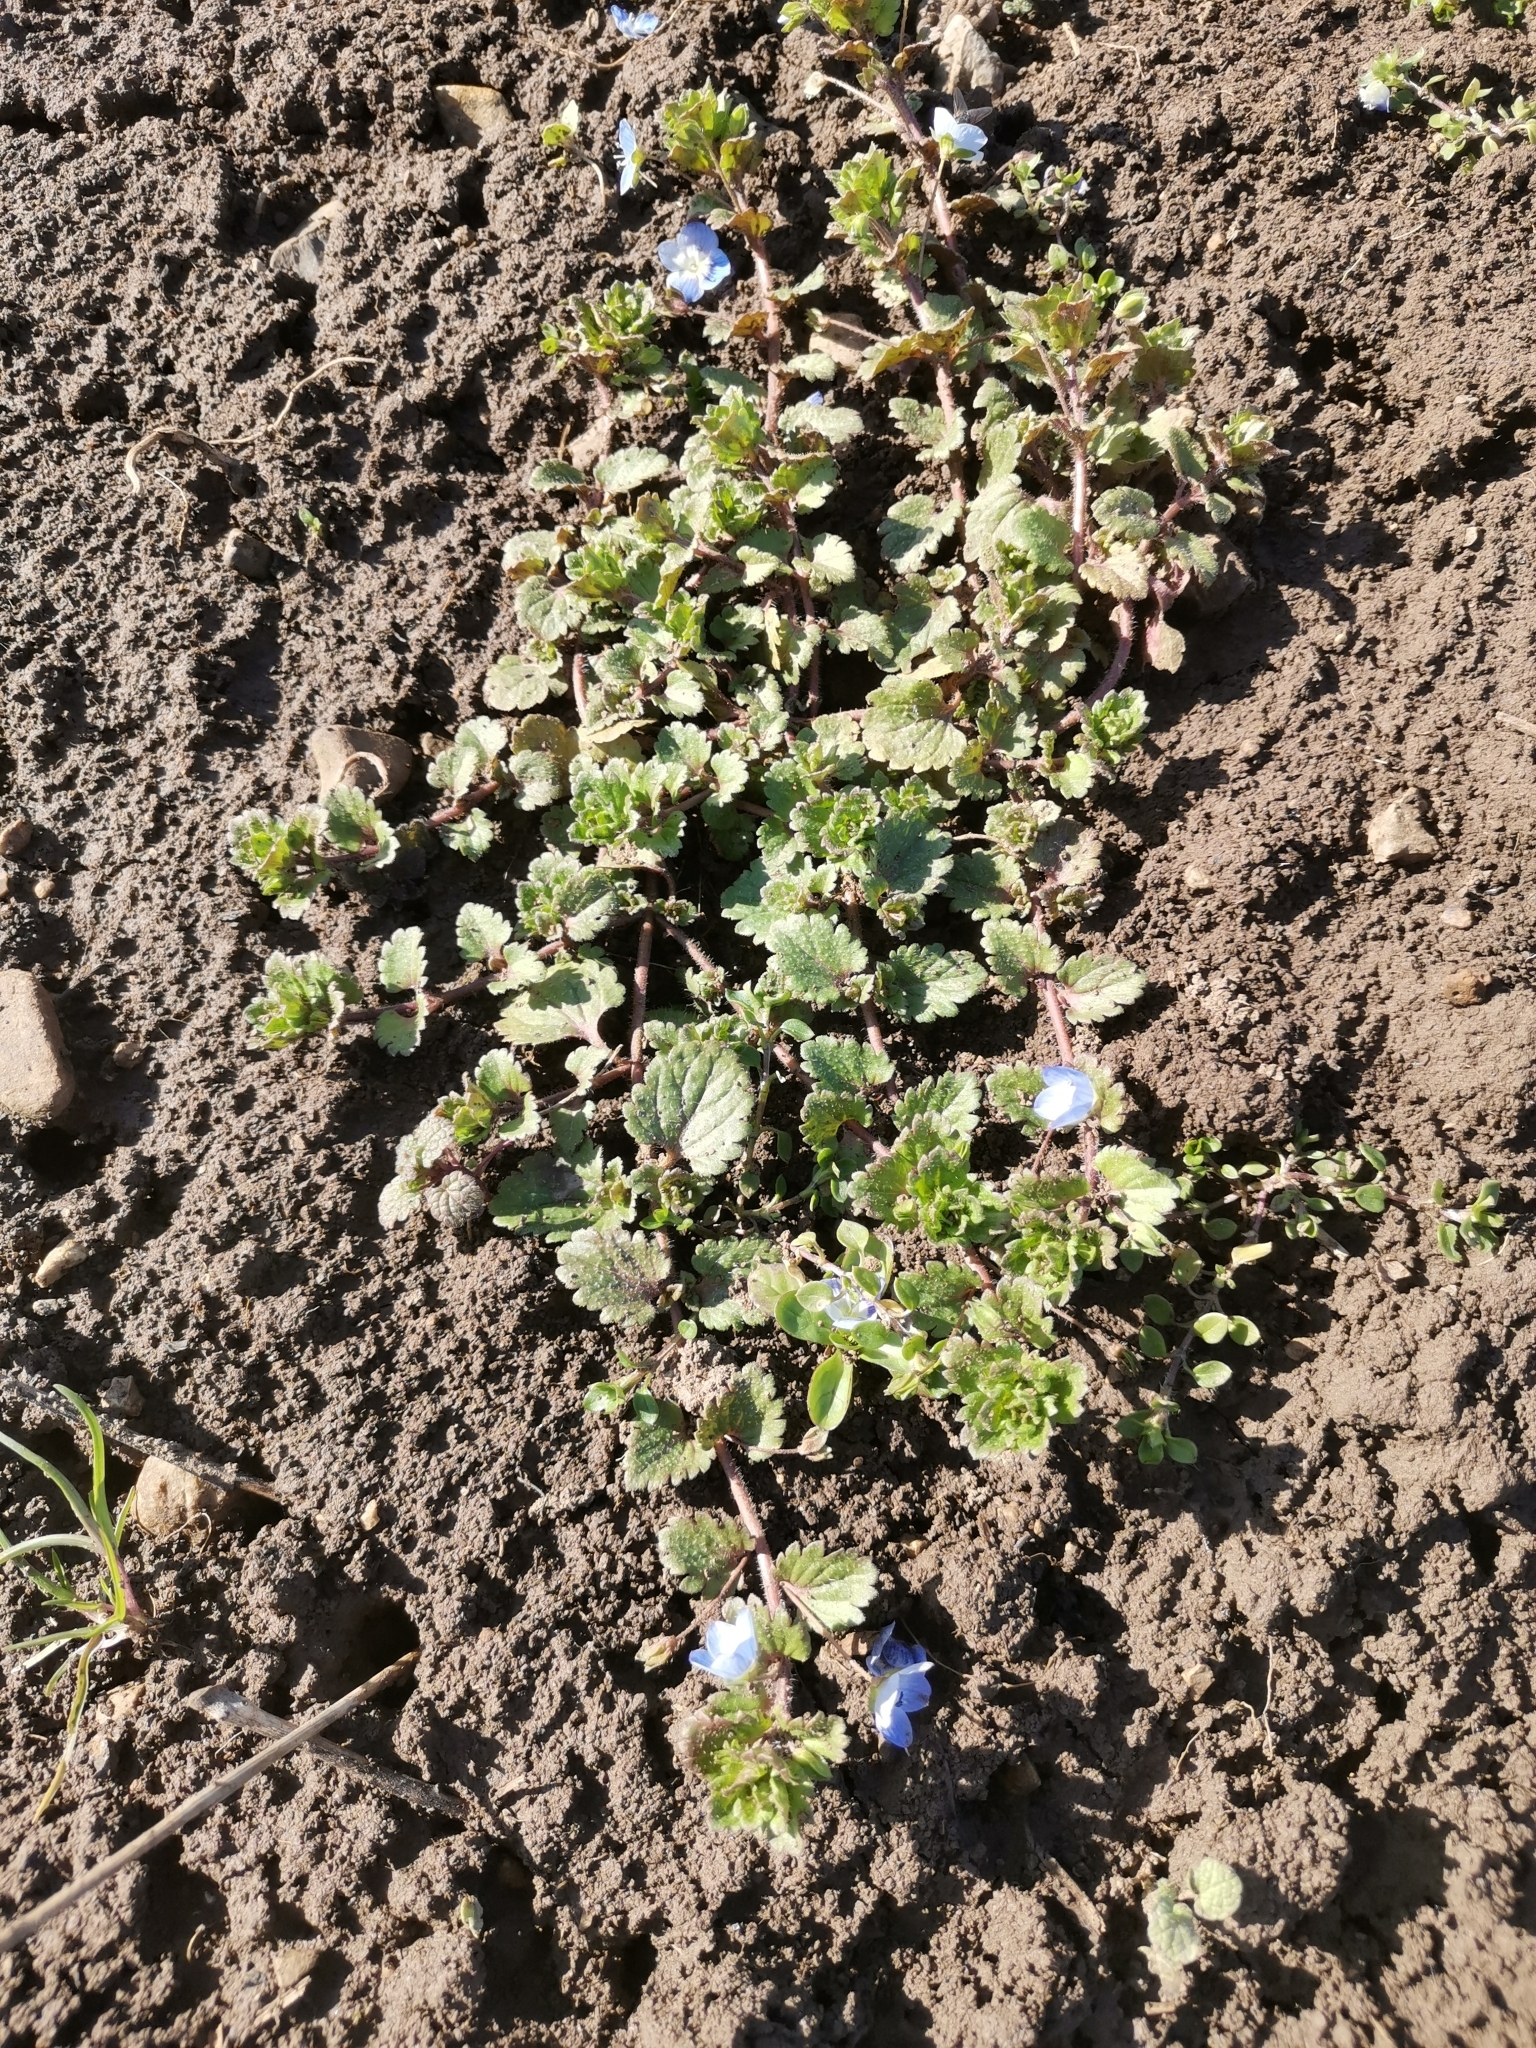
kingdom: Plantae
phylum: Tracheophyta
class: Magnoliopsida
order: Lamiales
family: Plantaginaceae
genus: Veronica
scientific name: Veronica persica
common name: Common field-speedwell
